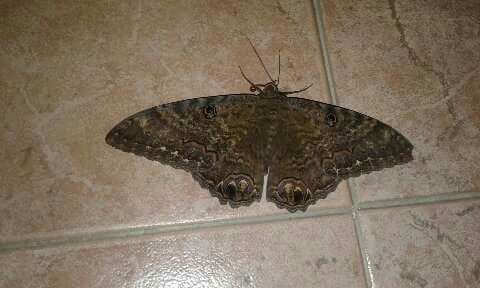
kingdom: Animalia
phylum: Arthropoda
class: Insecta
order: Lepidoptera
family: Erebidae
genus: Ascalapha
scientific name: Ascalapha odorata
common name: Black witch
